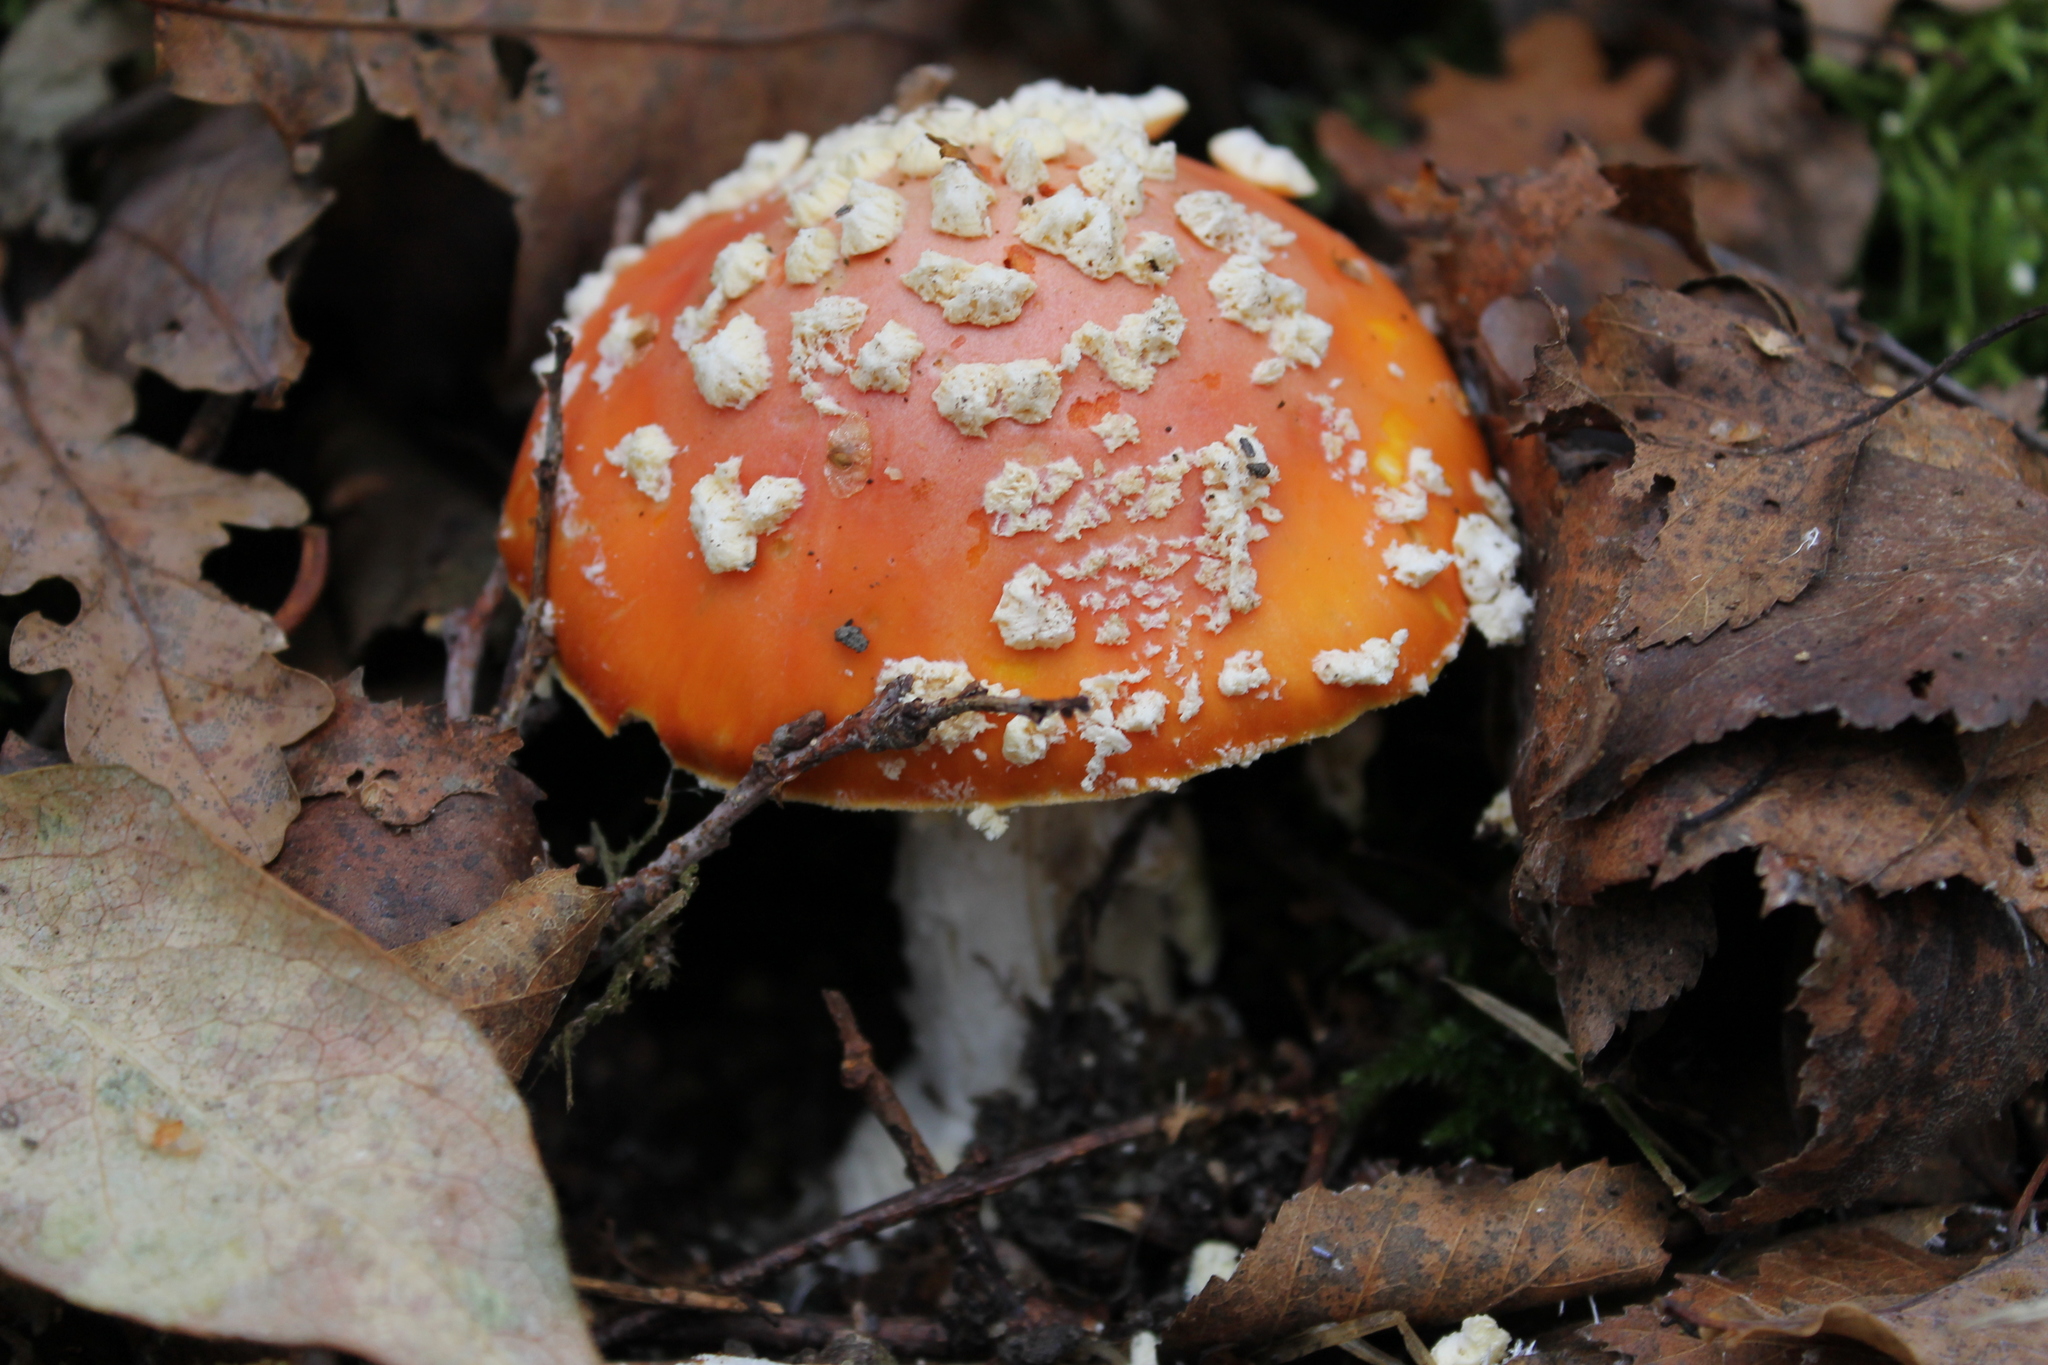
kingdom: Fungi
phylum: Basidiomycota
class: Agaricomycetes
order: Agaricales
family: Amanitaceae
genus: Amanita
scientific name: Amanita muscaria
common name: Fly agaric
